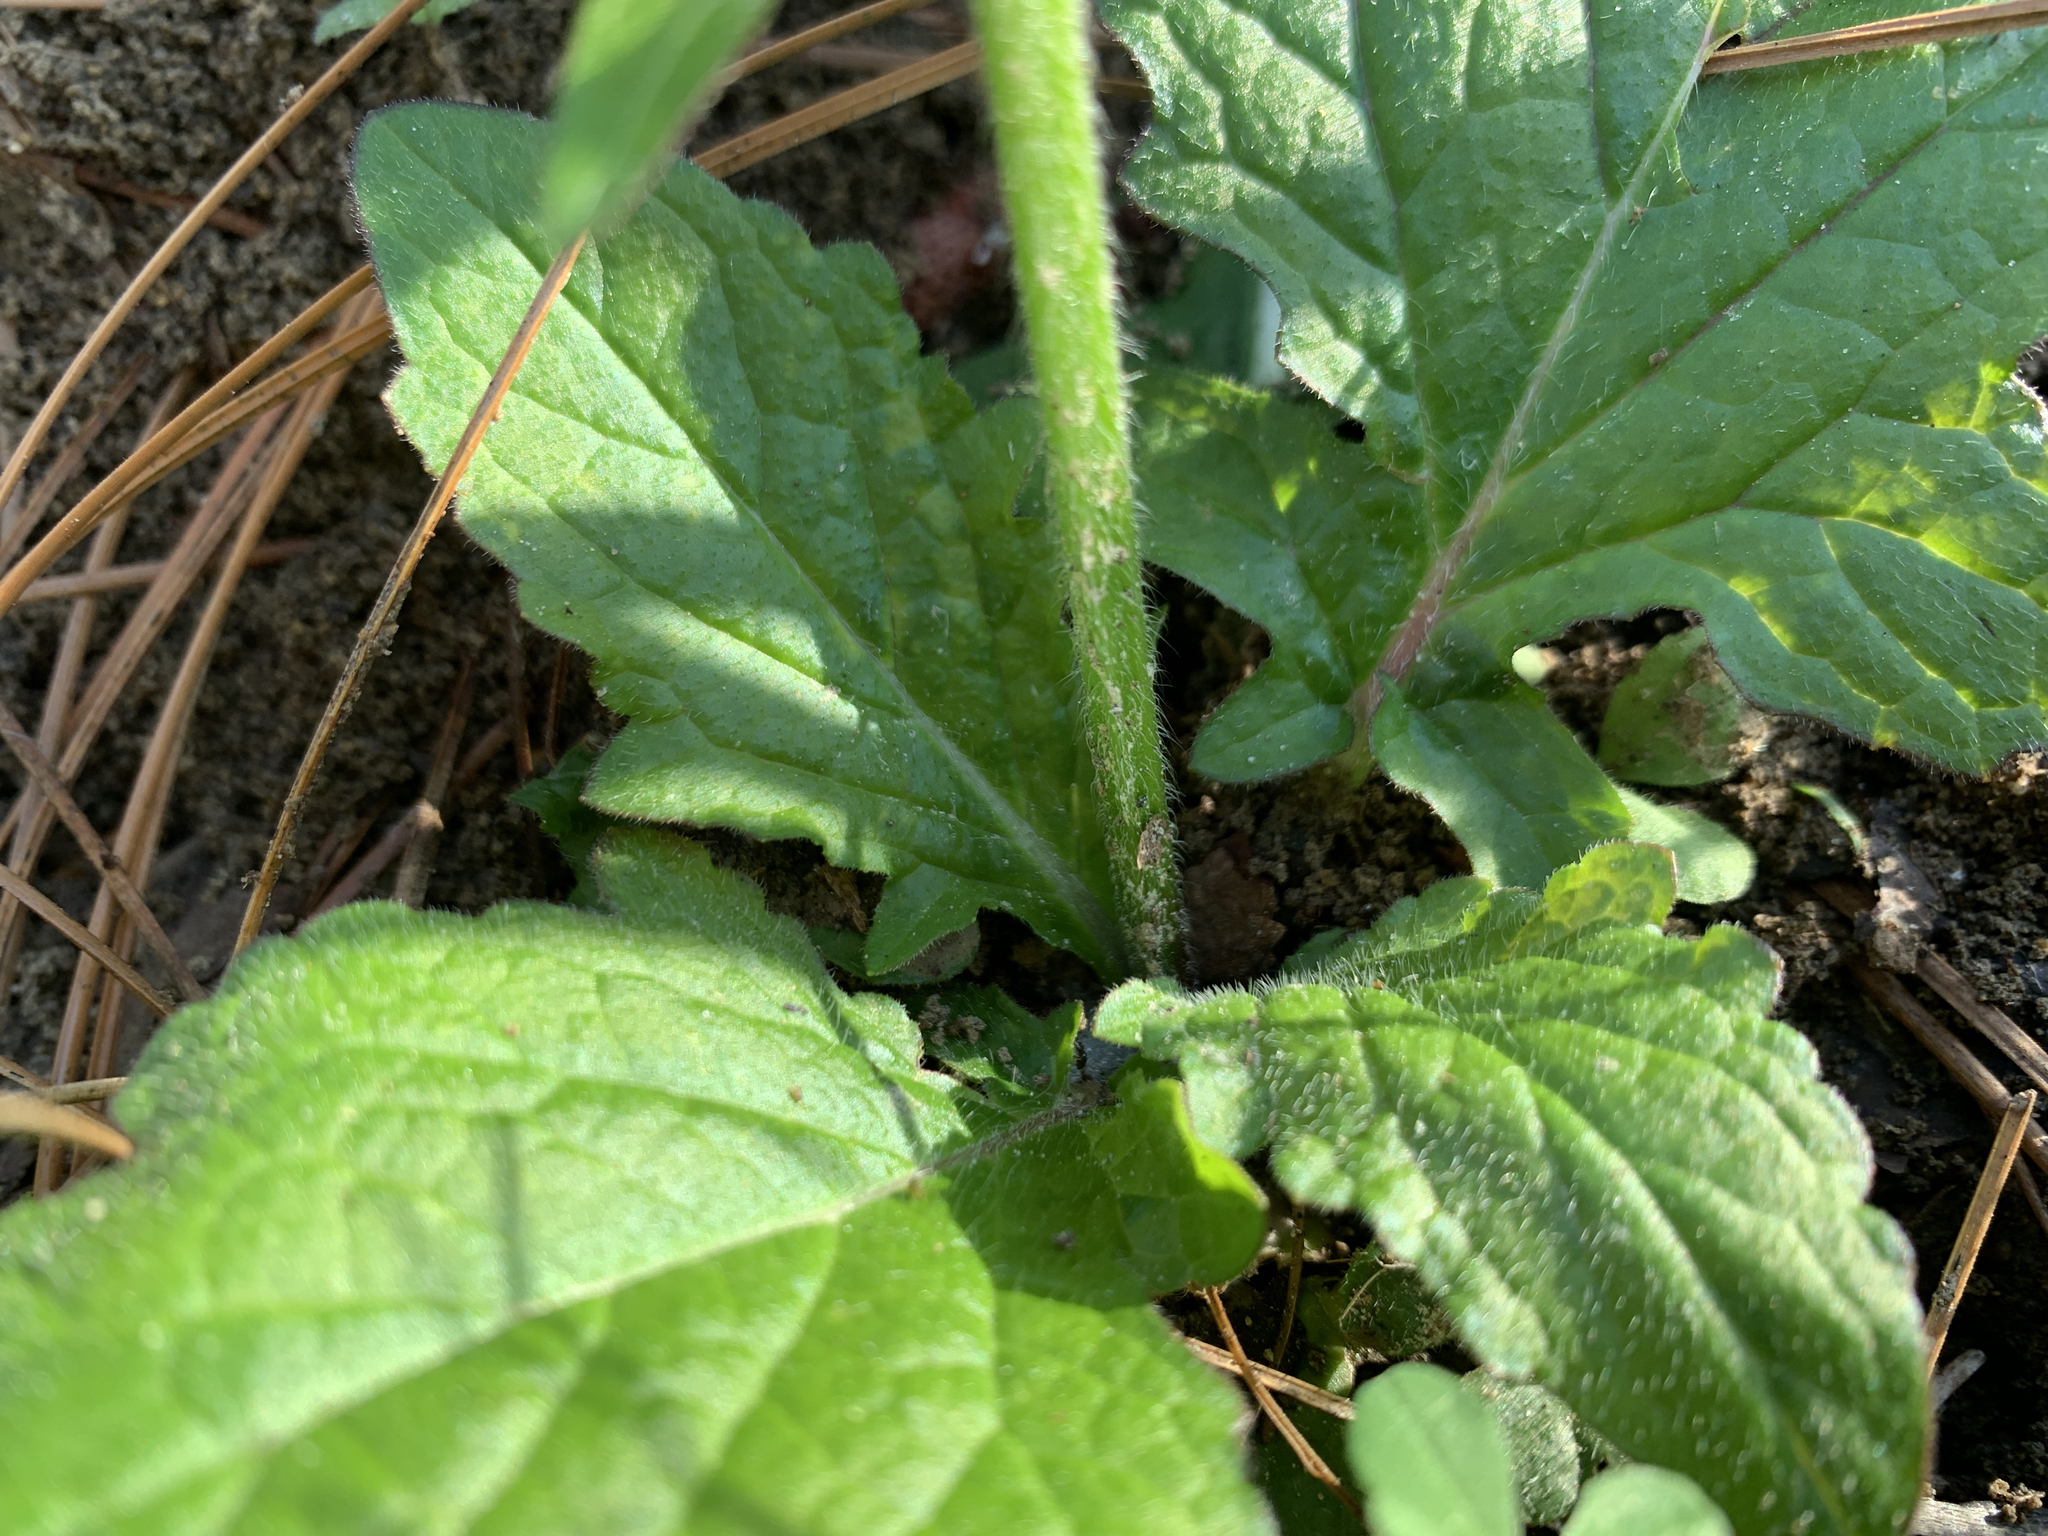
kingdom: Plantae
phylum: Tracheophyta
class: Magnoliopsida
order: Lamiales
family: Lamiaceae
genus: Salvia
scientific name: Salvia lyrata
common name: Cancerweed
